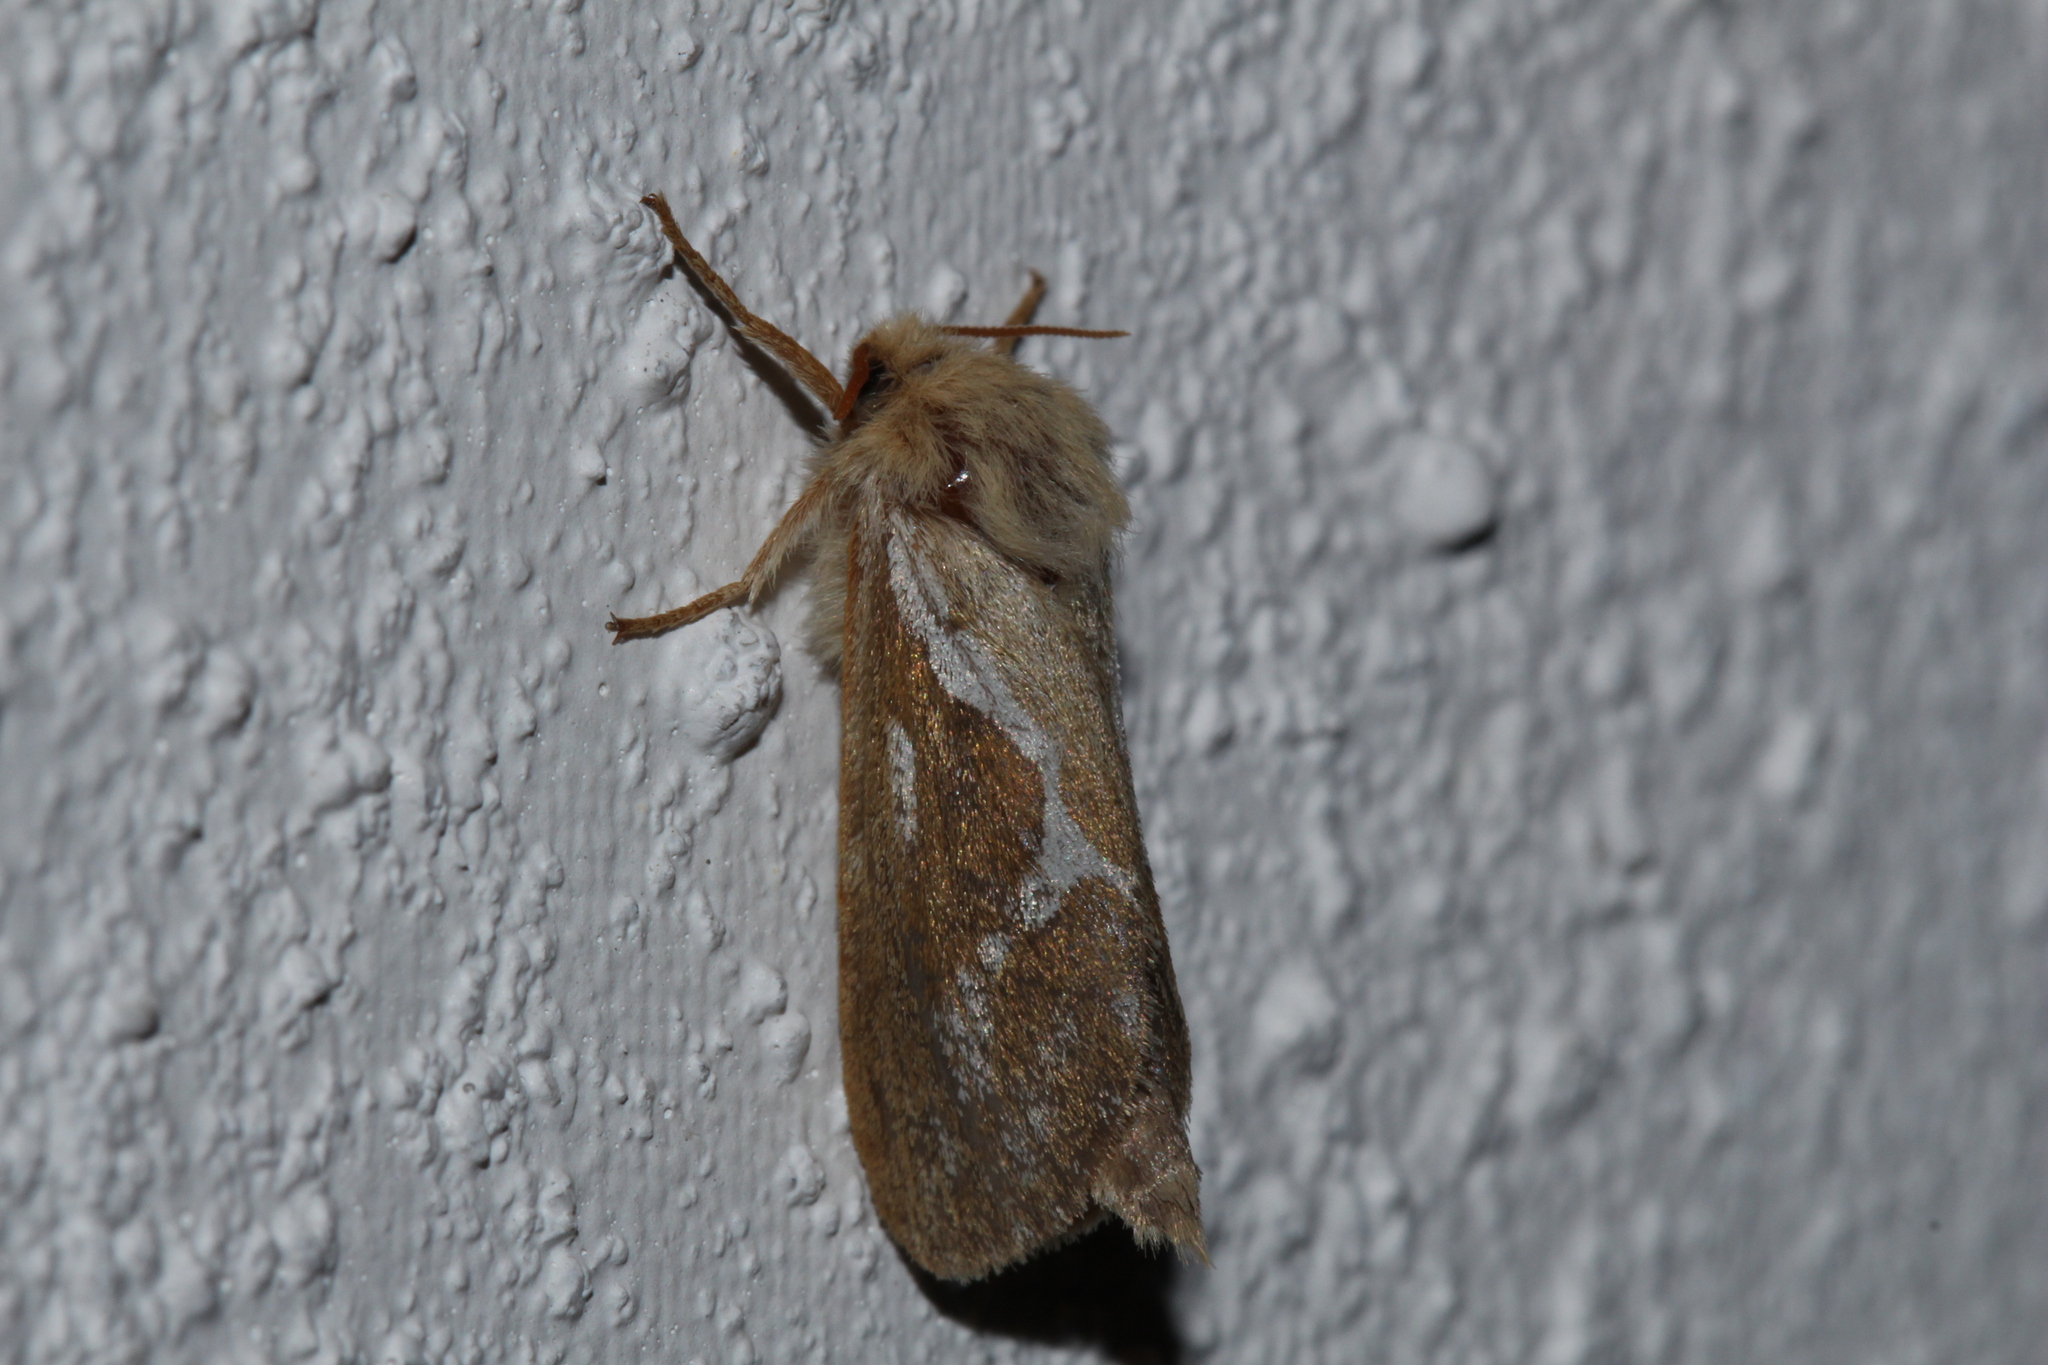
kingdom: Animalia
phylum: Arthropoda
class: Insecta
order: Lepidoptera
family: Hepialidae
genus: Korscheltellus
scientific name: Korscheltellus lupulina
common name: Common swift
